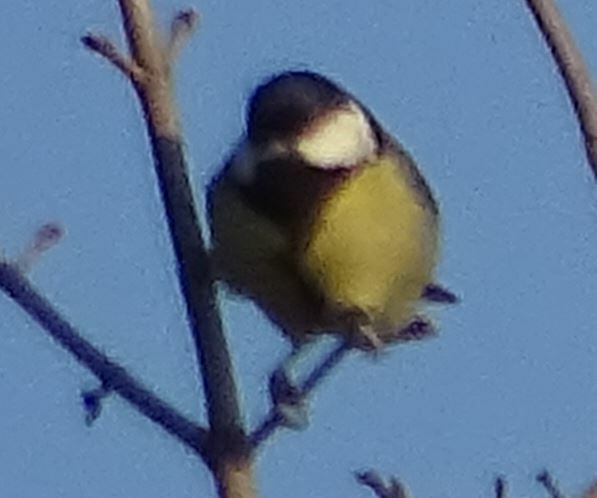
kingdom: Animalia
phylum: Chordata
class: Aves
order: Passeriformes
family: Paridae
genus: Parus
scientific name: Parus major
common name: Great tit
